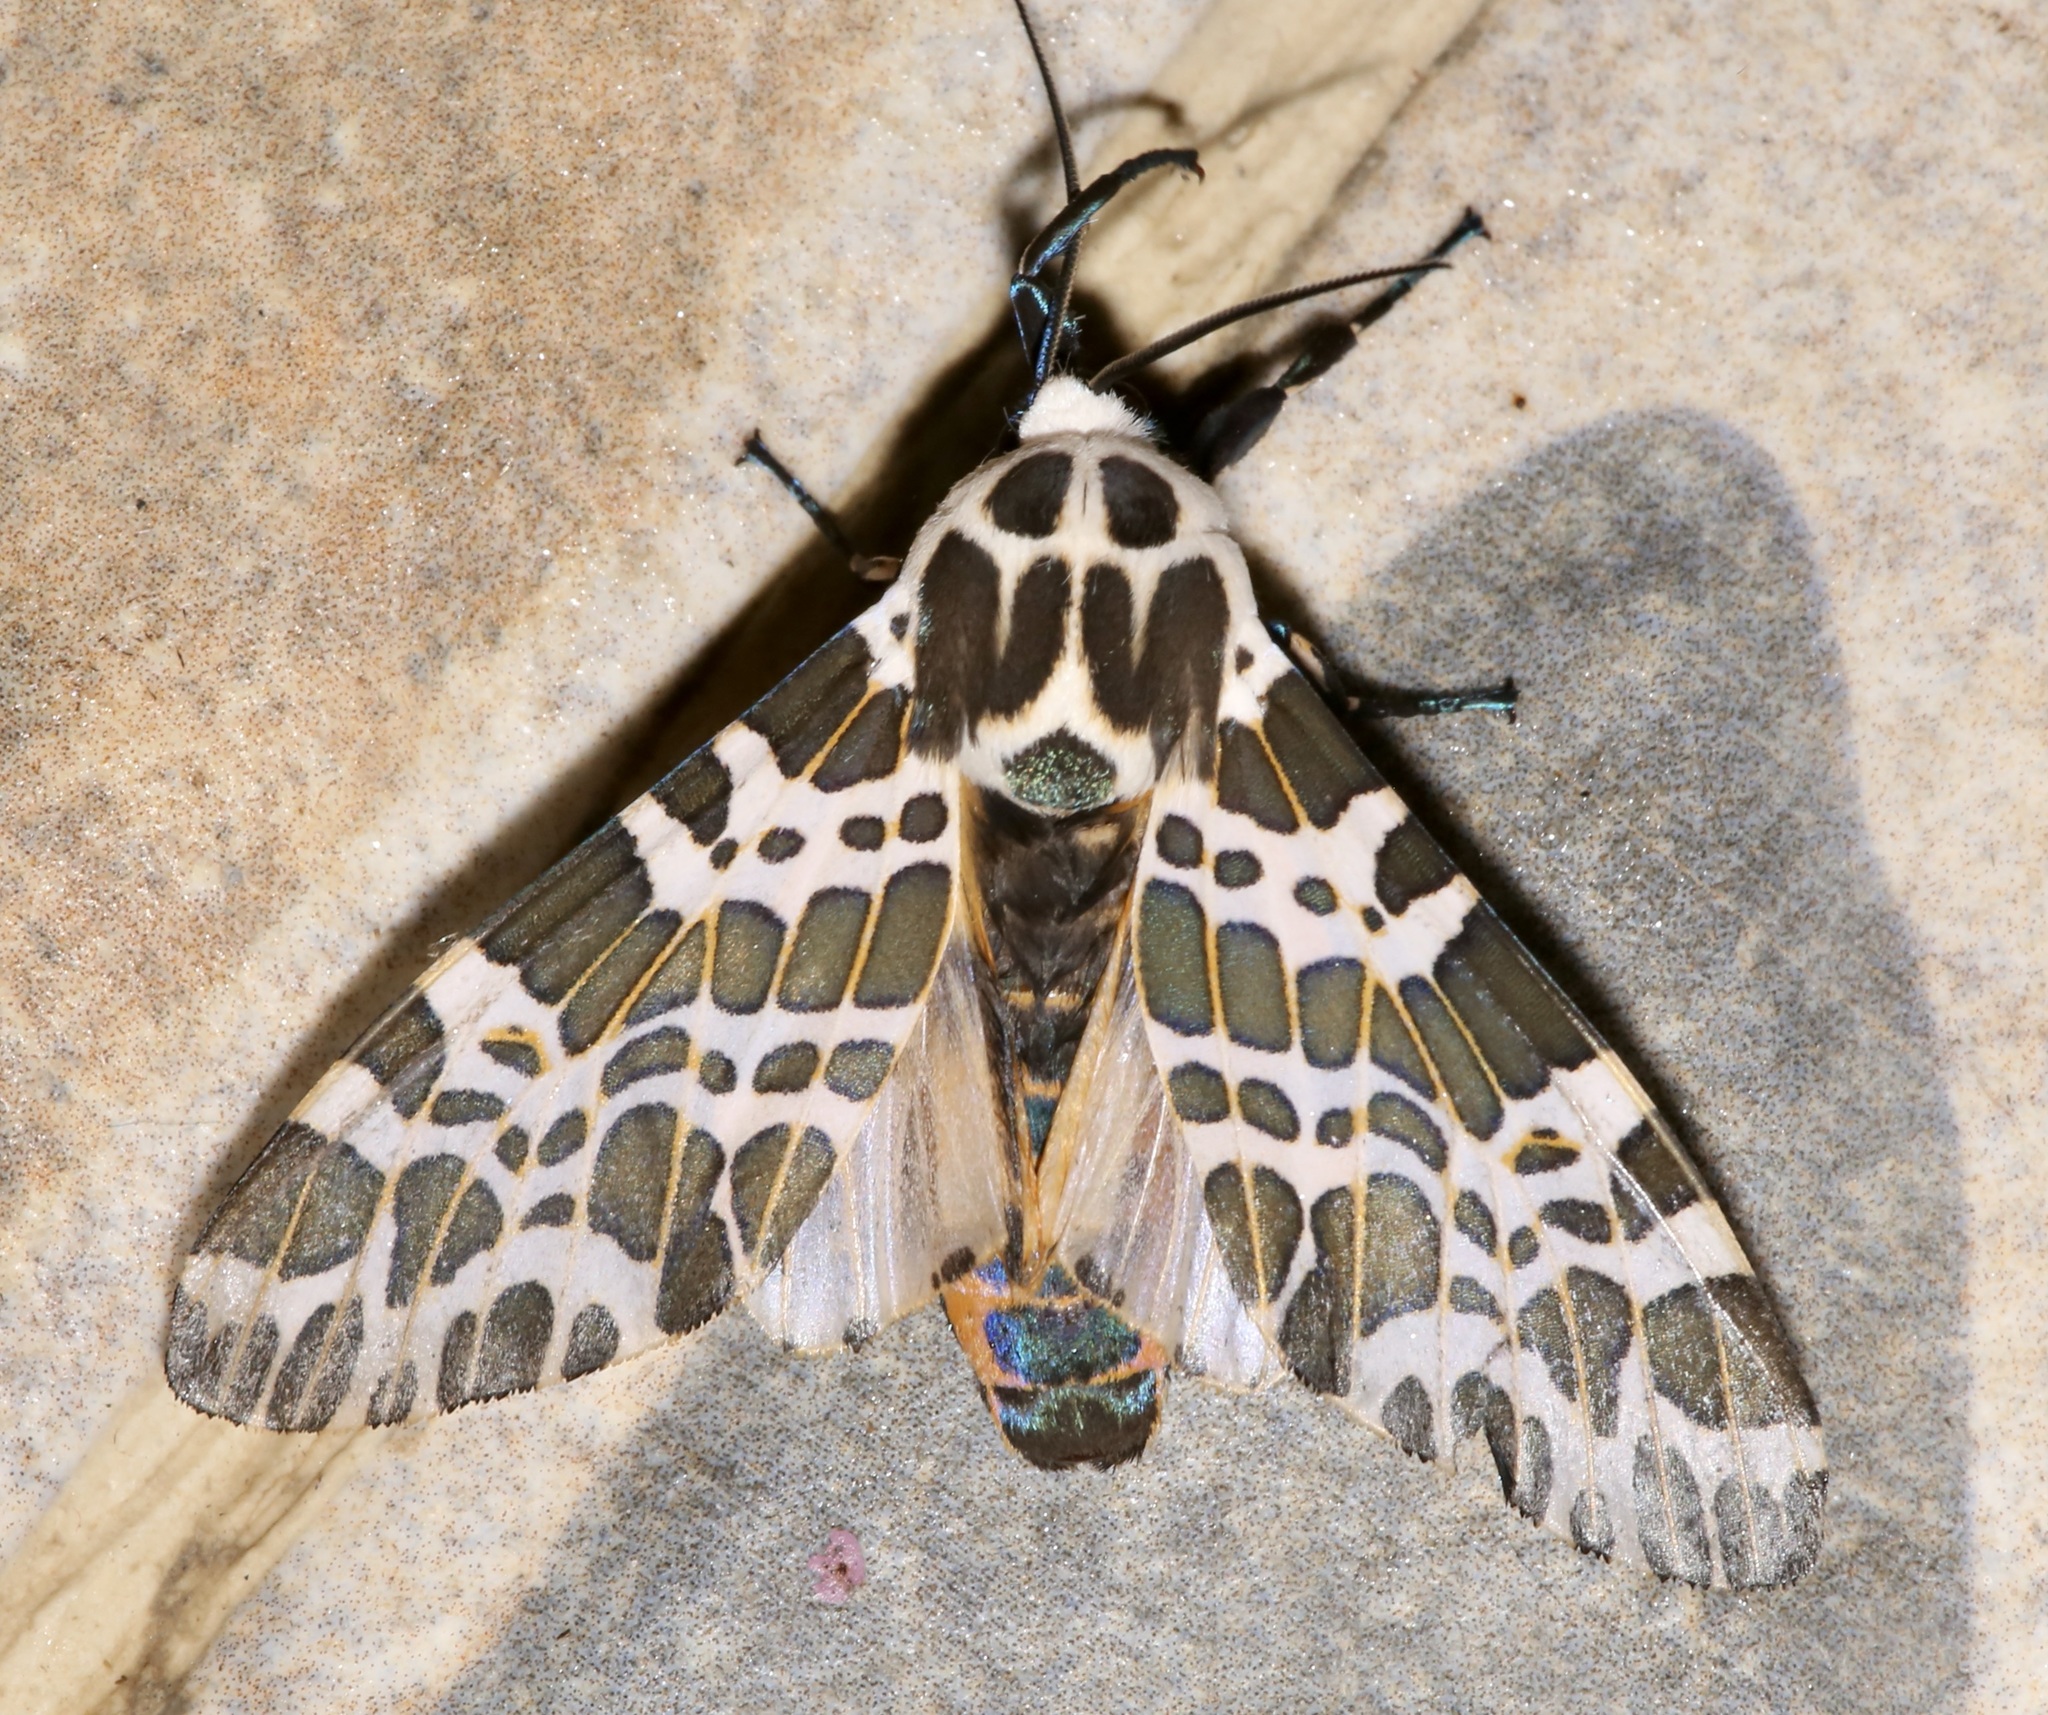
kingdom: Animalia
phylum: Arthropoda
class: Insecta
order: Lepidoptera
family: Erebidae
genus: Hypercompe
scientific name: Hypercompe laeta
